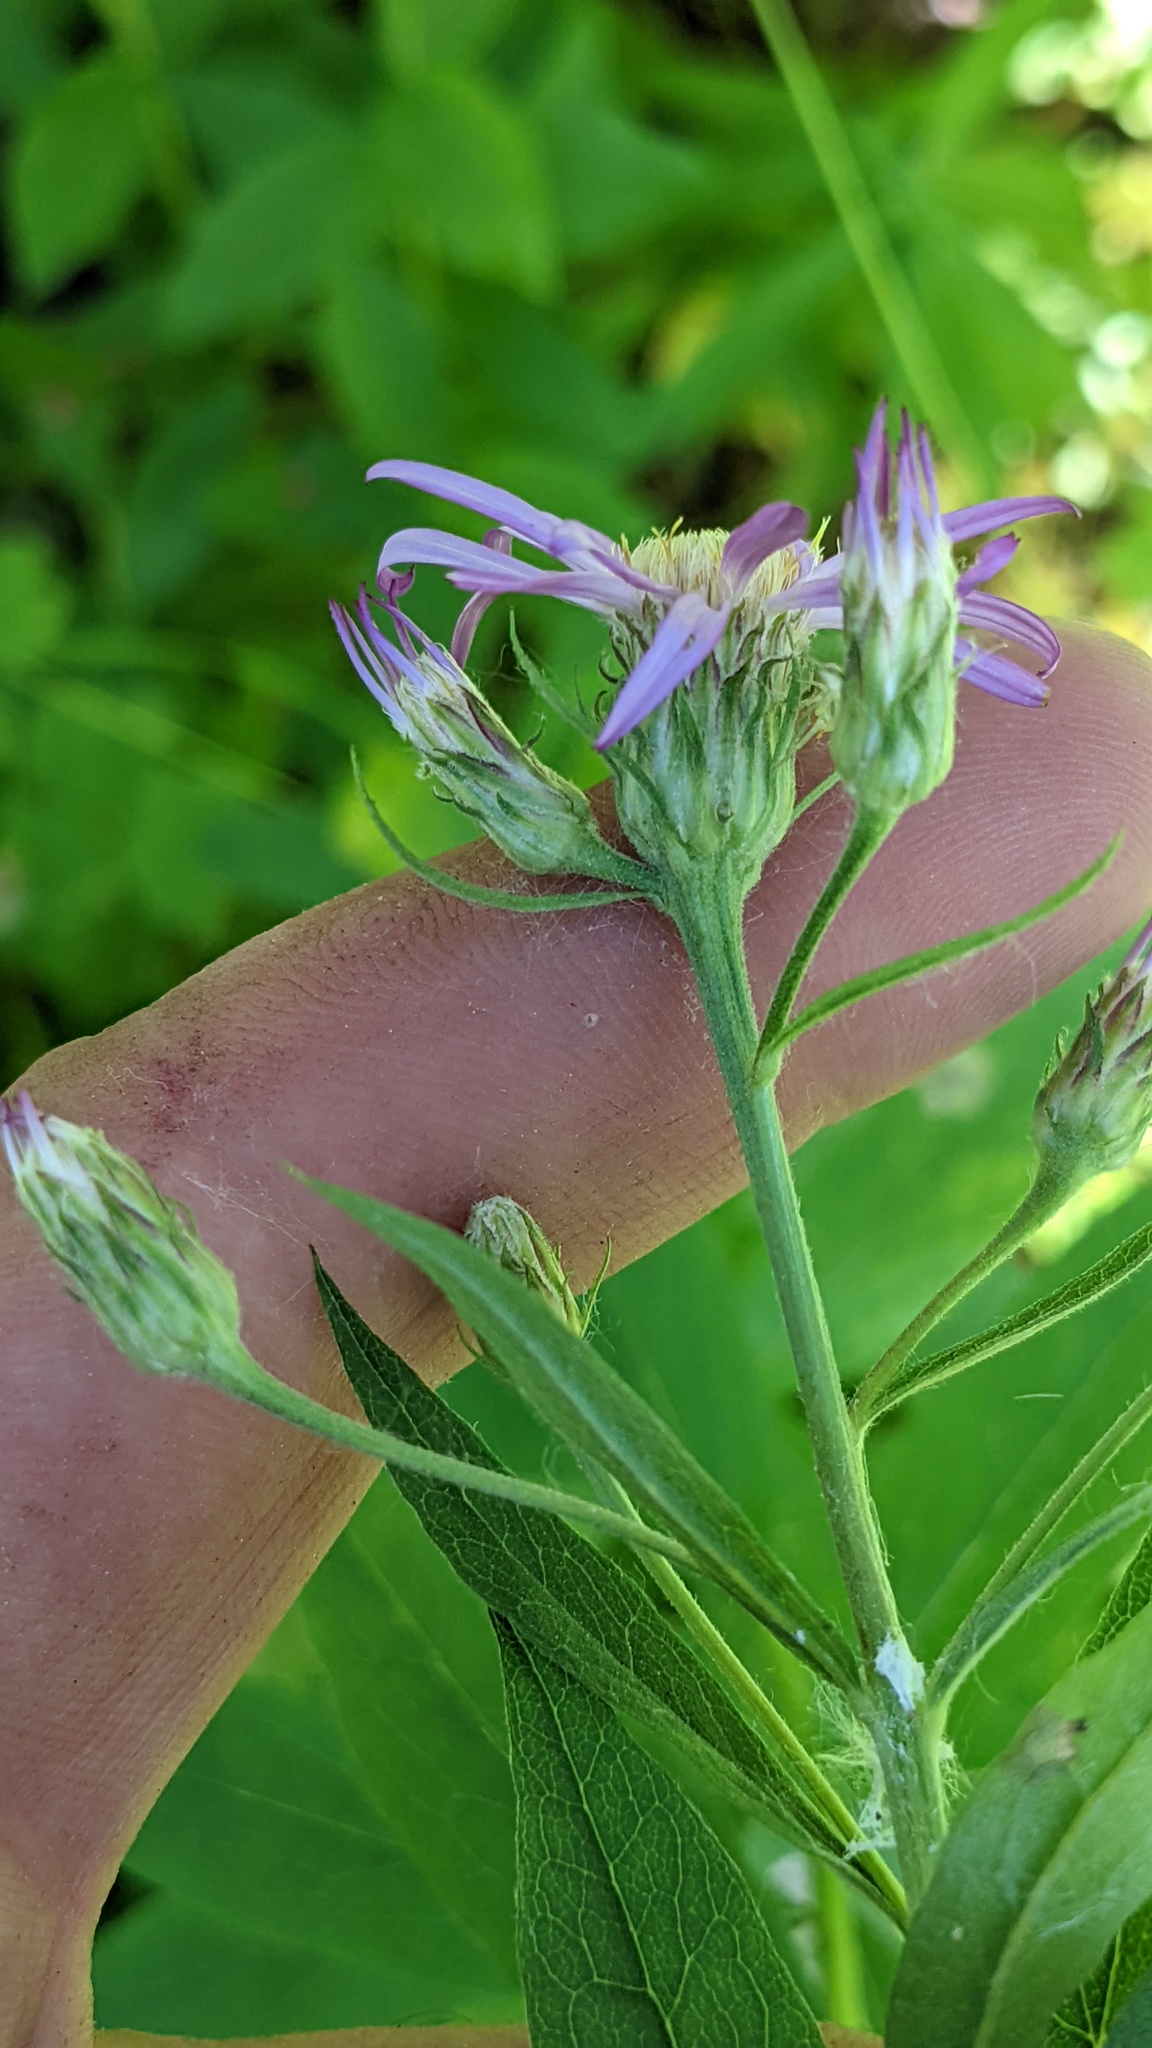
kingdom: Plantae
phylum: Tracheophyta
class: Magnoliopsida
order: Asterales
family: Asteraceae
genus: Eucephalus
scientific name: Eucephalus engelmannii
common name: Engelmann's aster
